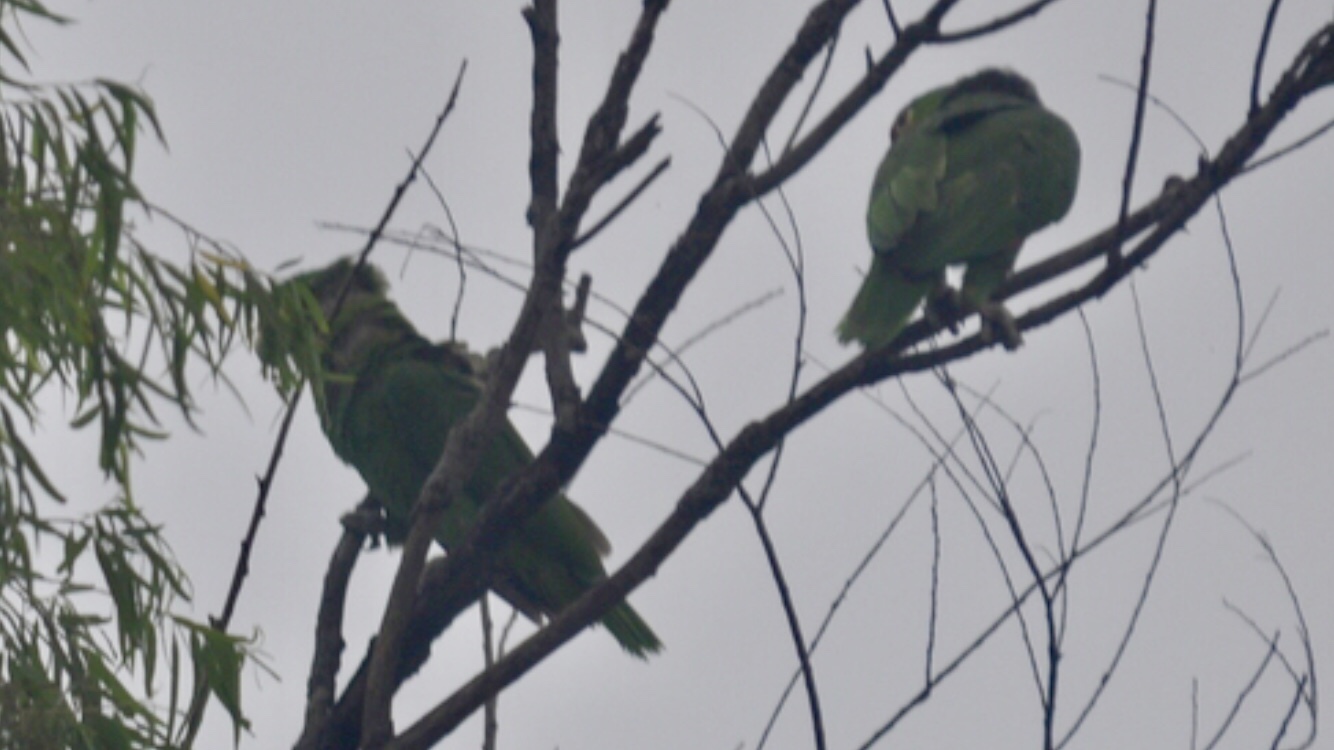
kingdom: Animalia
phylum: Chordata
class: Aves
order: Psittaciformes
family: Psittacidae
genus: Amazona
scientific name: Amazona viridigenalis
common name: Red-crowned amazon
